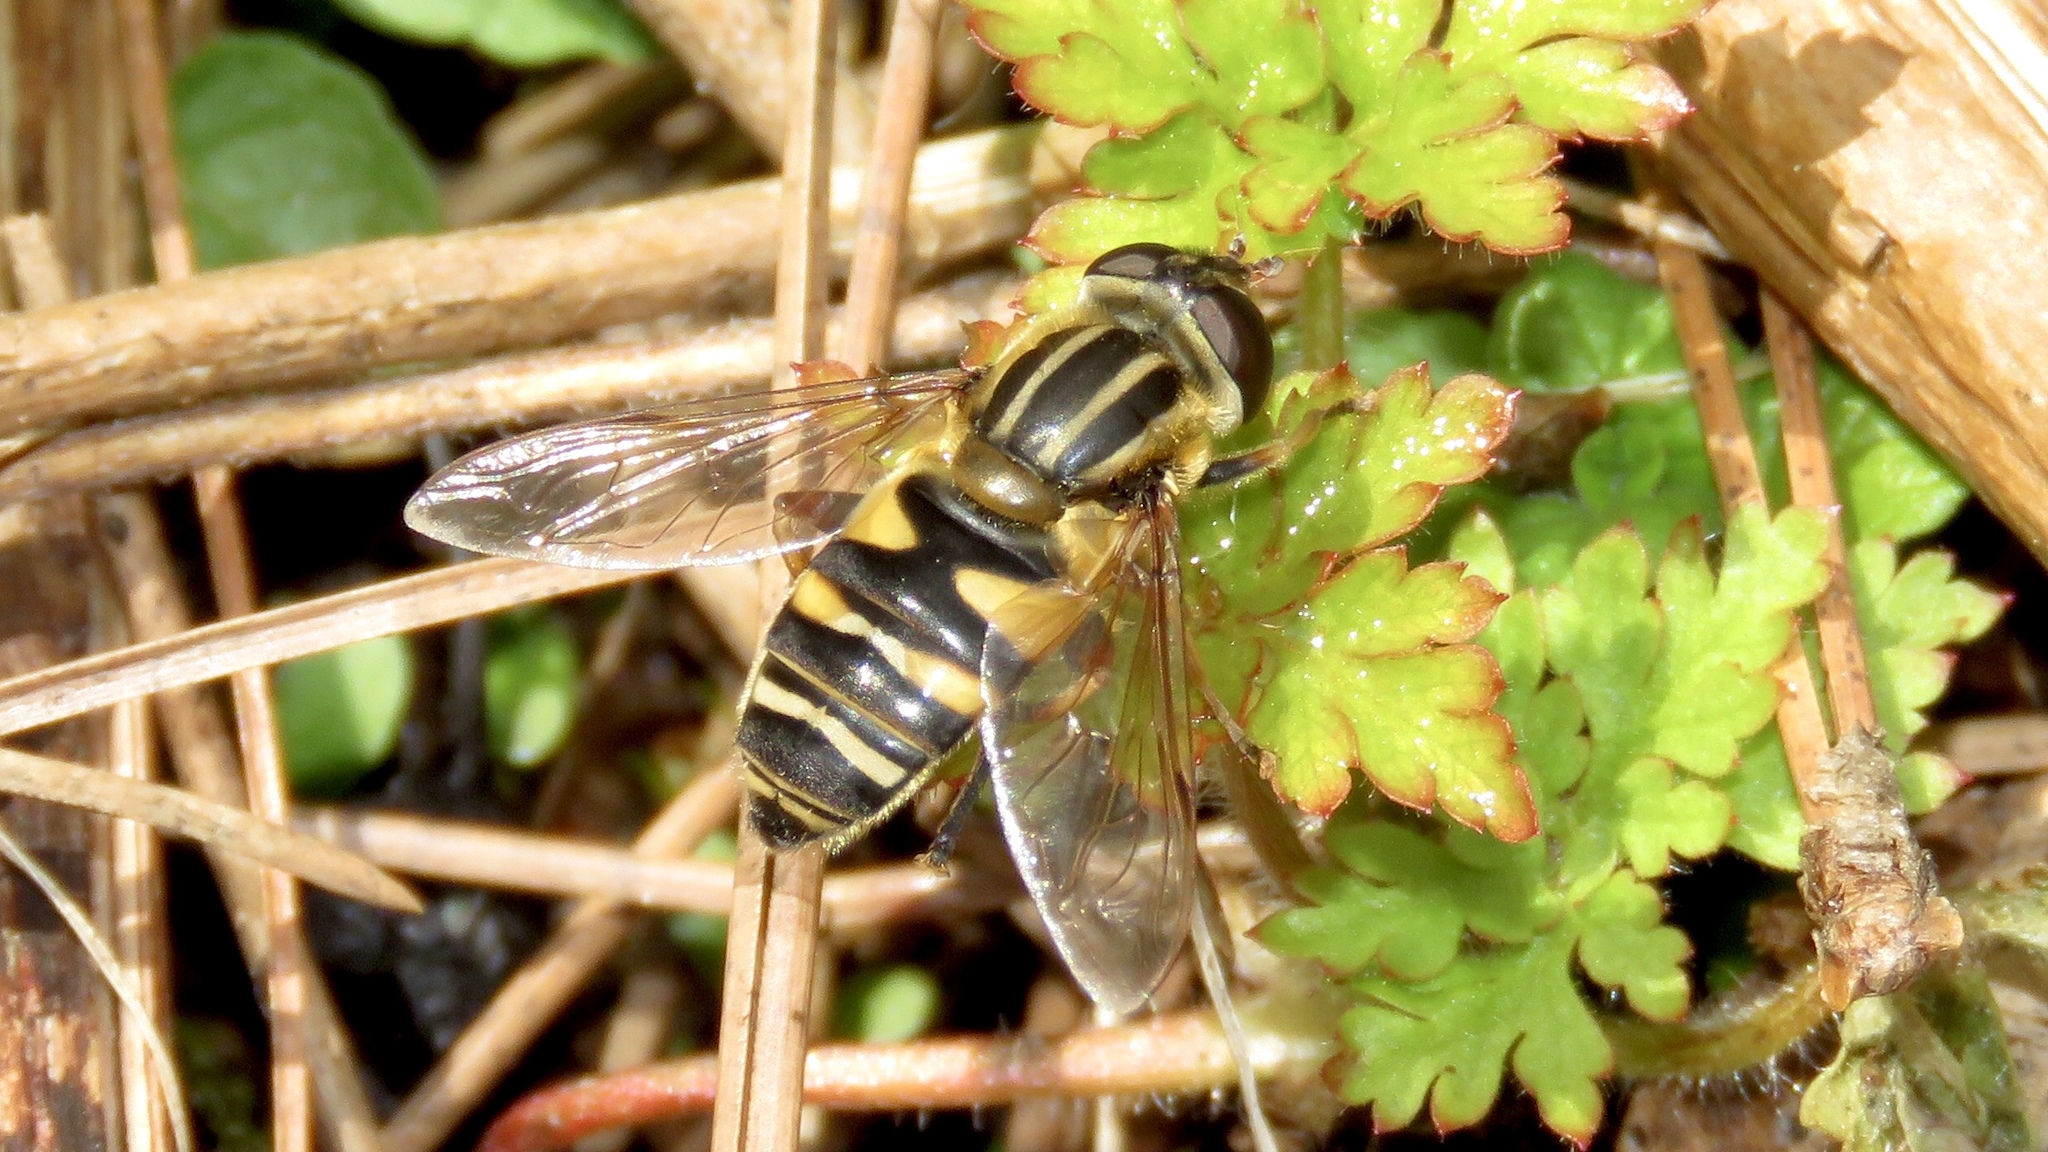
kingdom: Animalia
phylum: Arthropoda
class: Insecta
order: Diptera
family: Syrphidae
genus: Helophilus
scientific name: Helophilus fasciatus
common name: Narrow-headed marsh fly
